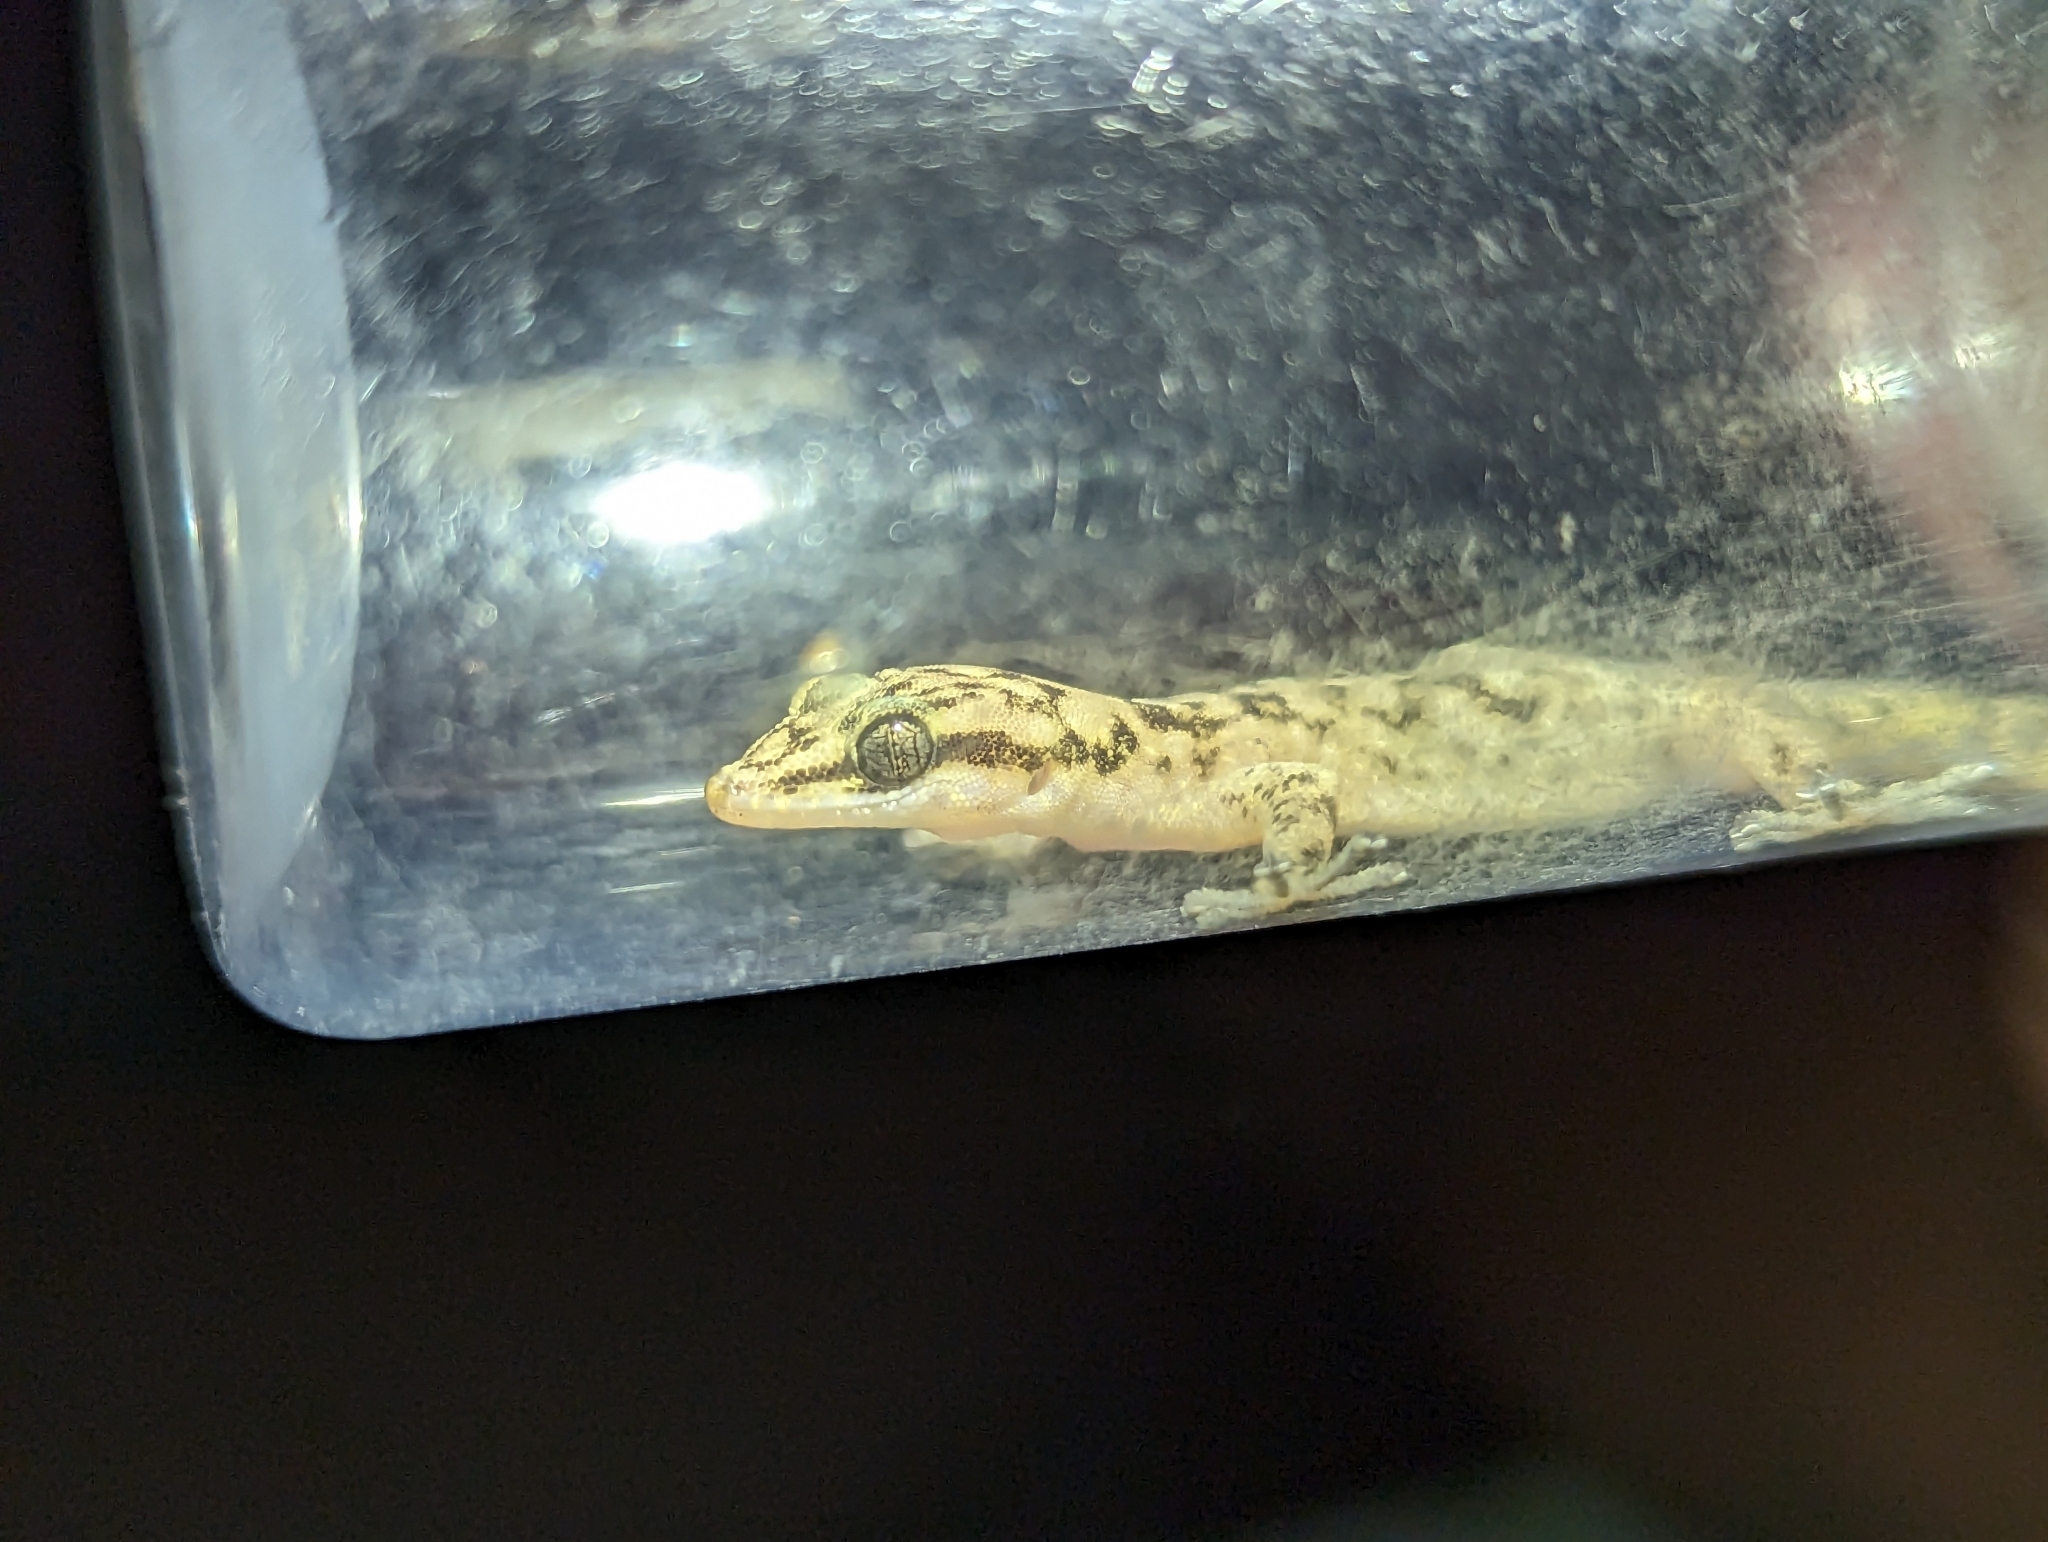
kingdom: Animalia
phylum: Chordata
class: Squamata
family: Phyllodactylidae
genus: Phyllodactylus
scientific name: Phyllodactylus unctus
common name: San lucan  gecko
